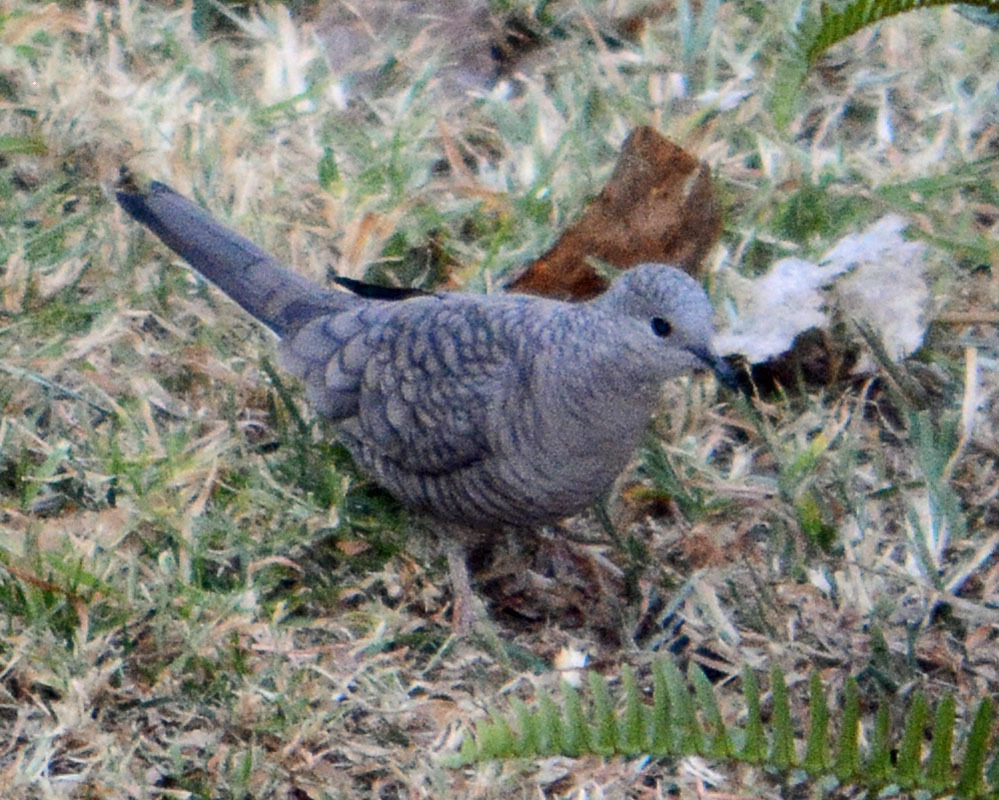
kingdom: Animalia
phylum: Chordata
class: Aves
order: Columbiformes
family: Columbidae
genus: Columbina
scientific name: Columbina inca
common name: Inca dove
